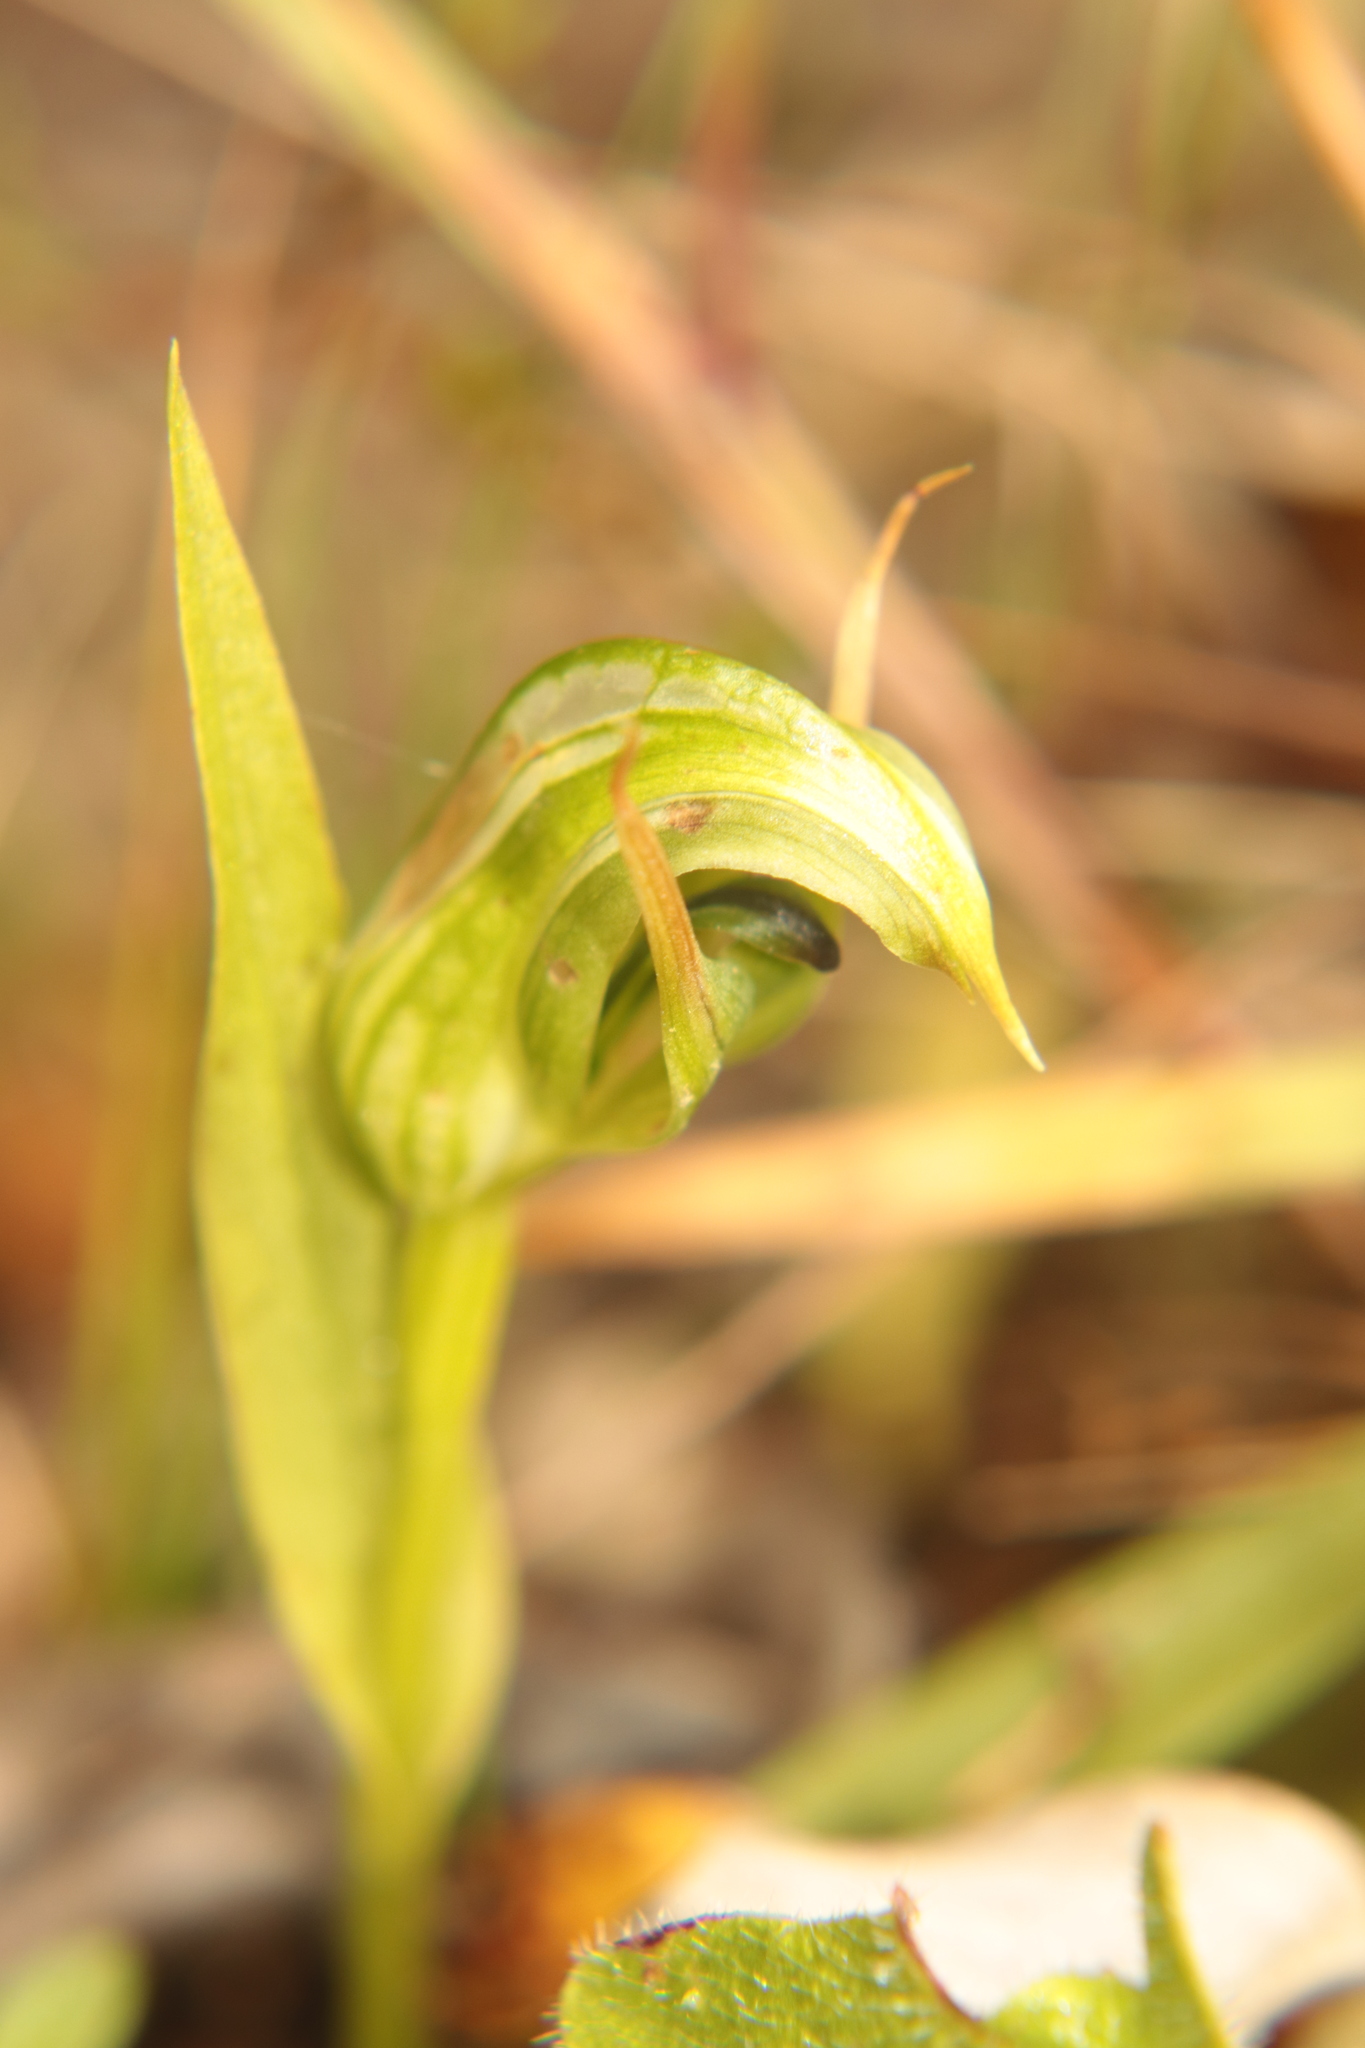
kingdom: Plantae
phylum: Tracheophyta
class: Liliopsida
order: Asparagales
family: Orchidaceae
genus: Pterostylis
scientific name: Pterostylis montana
